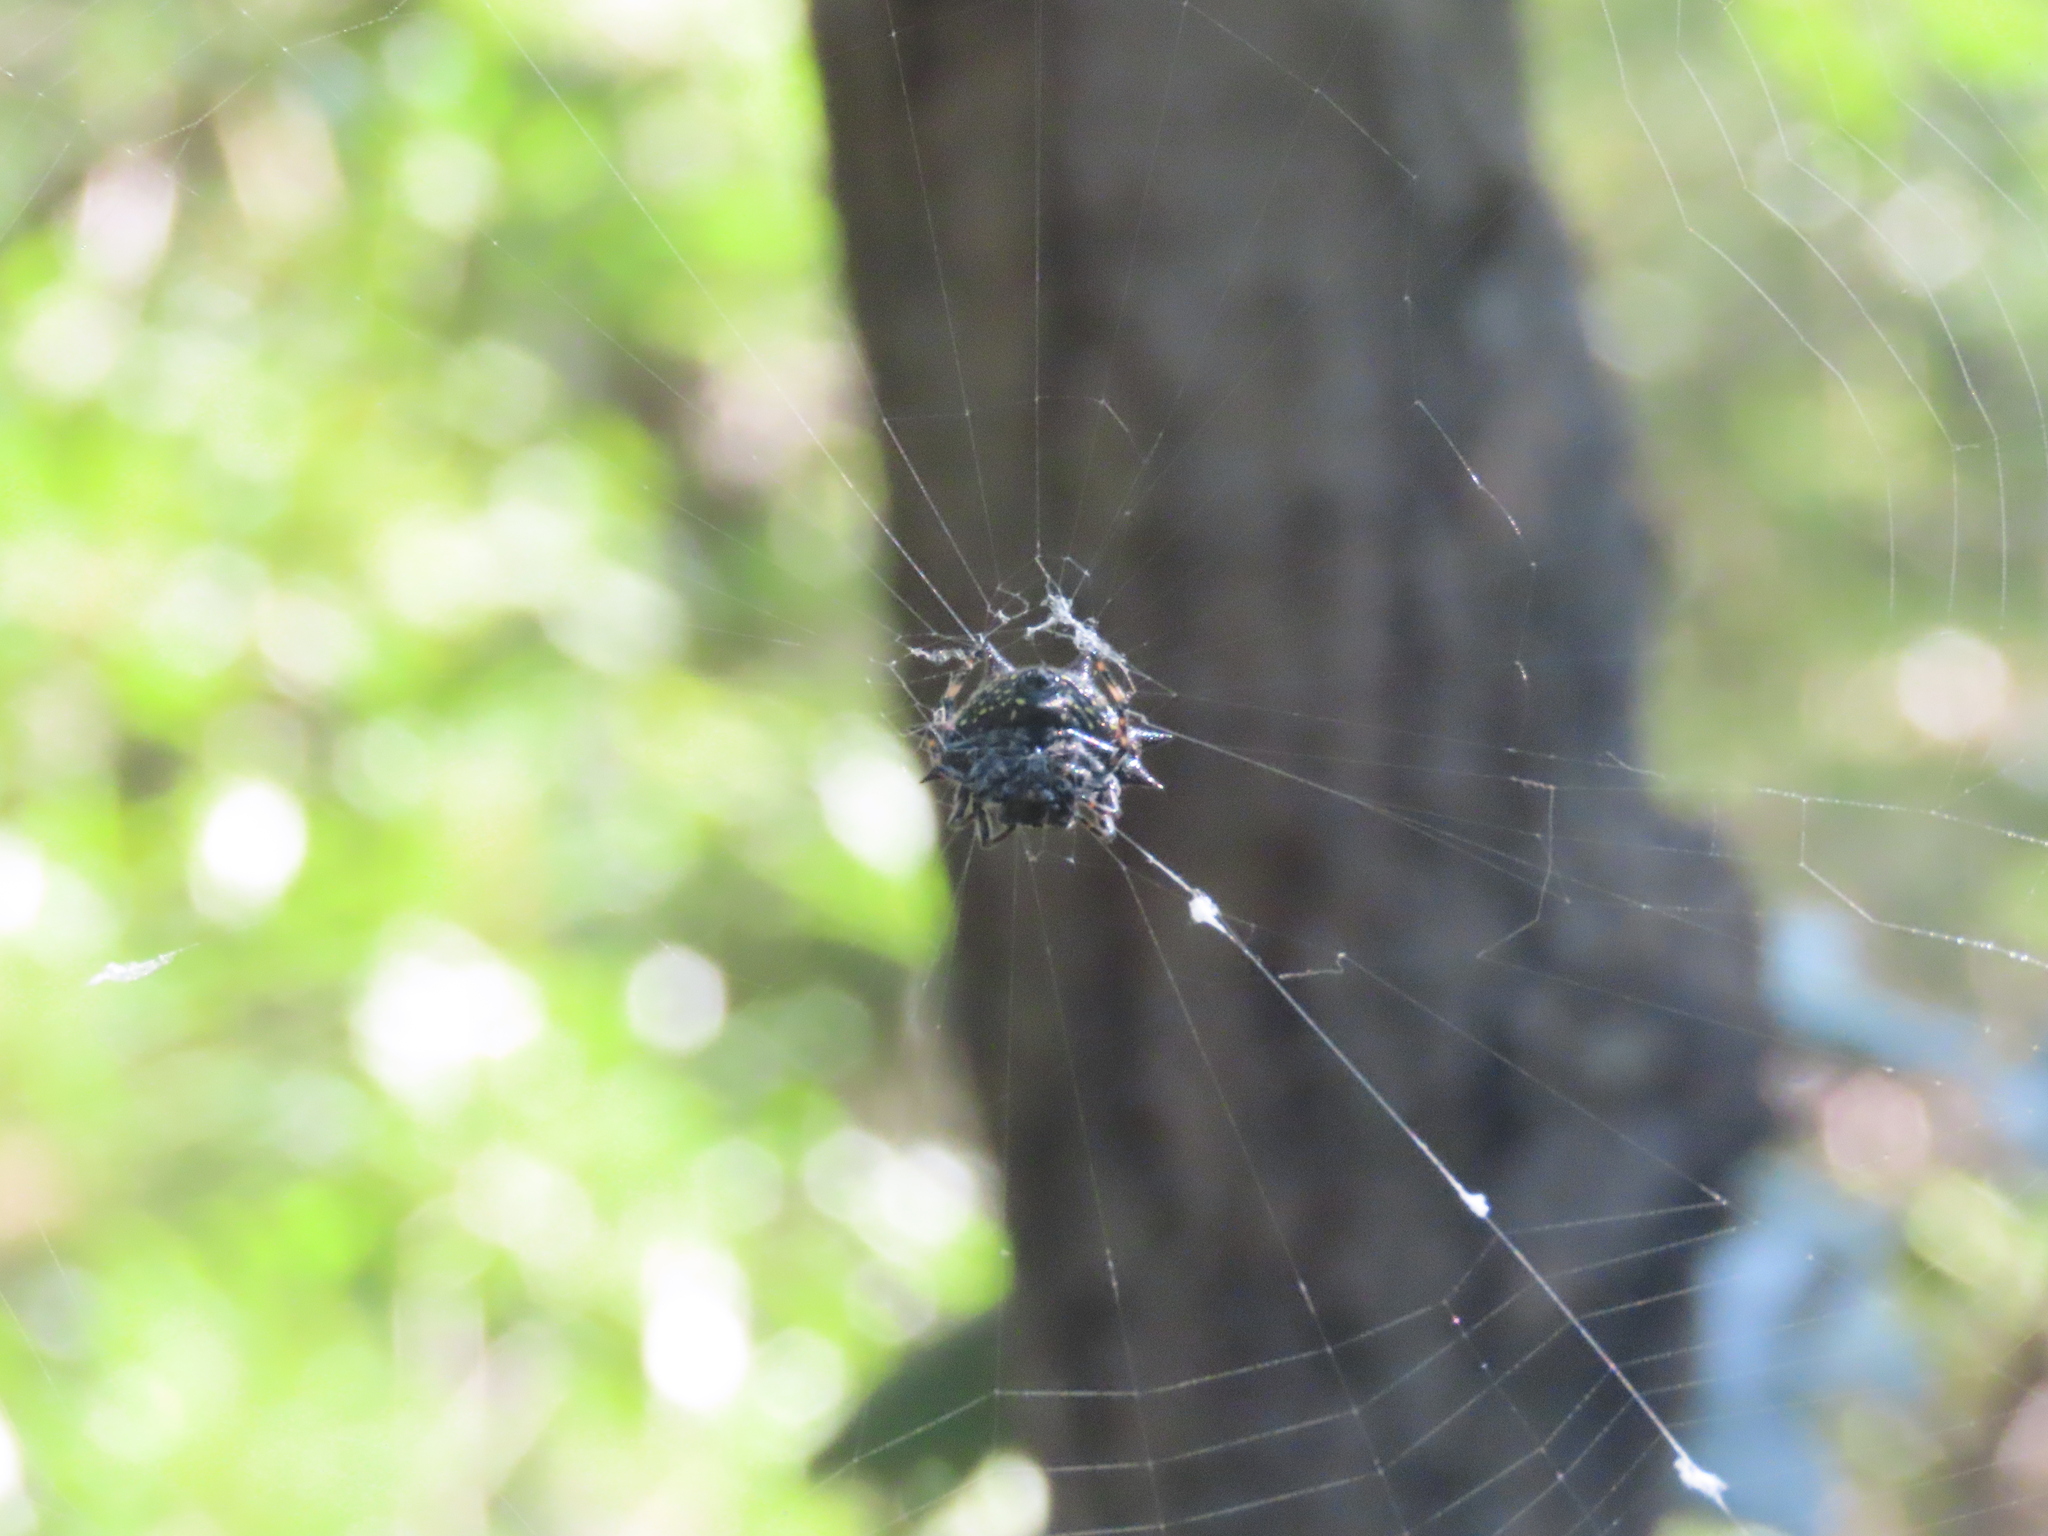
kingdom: Animalia
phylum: Arthropoda
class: Arachnida
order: Araneae
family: Araneidae
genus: Gasteracantha
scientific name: Gasteracantha cancriformis
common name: Orb weavers
